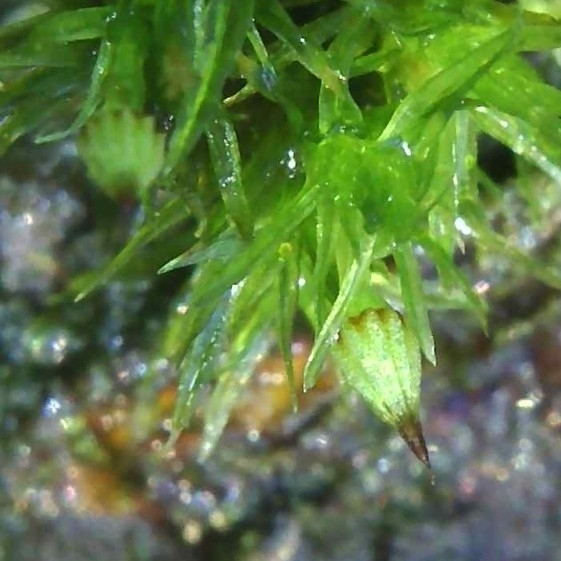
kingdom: Plantae
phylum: Bryophyta
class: Bryopsida
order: Orthotrichales
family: Orthotrichaceae
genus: Orthotrichum
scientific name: Orthotrichum pulchellum
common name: Elegant bristle-moss
